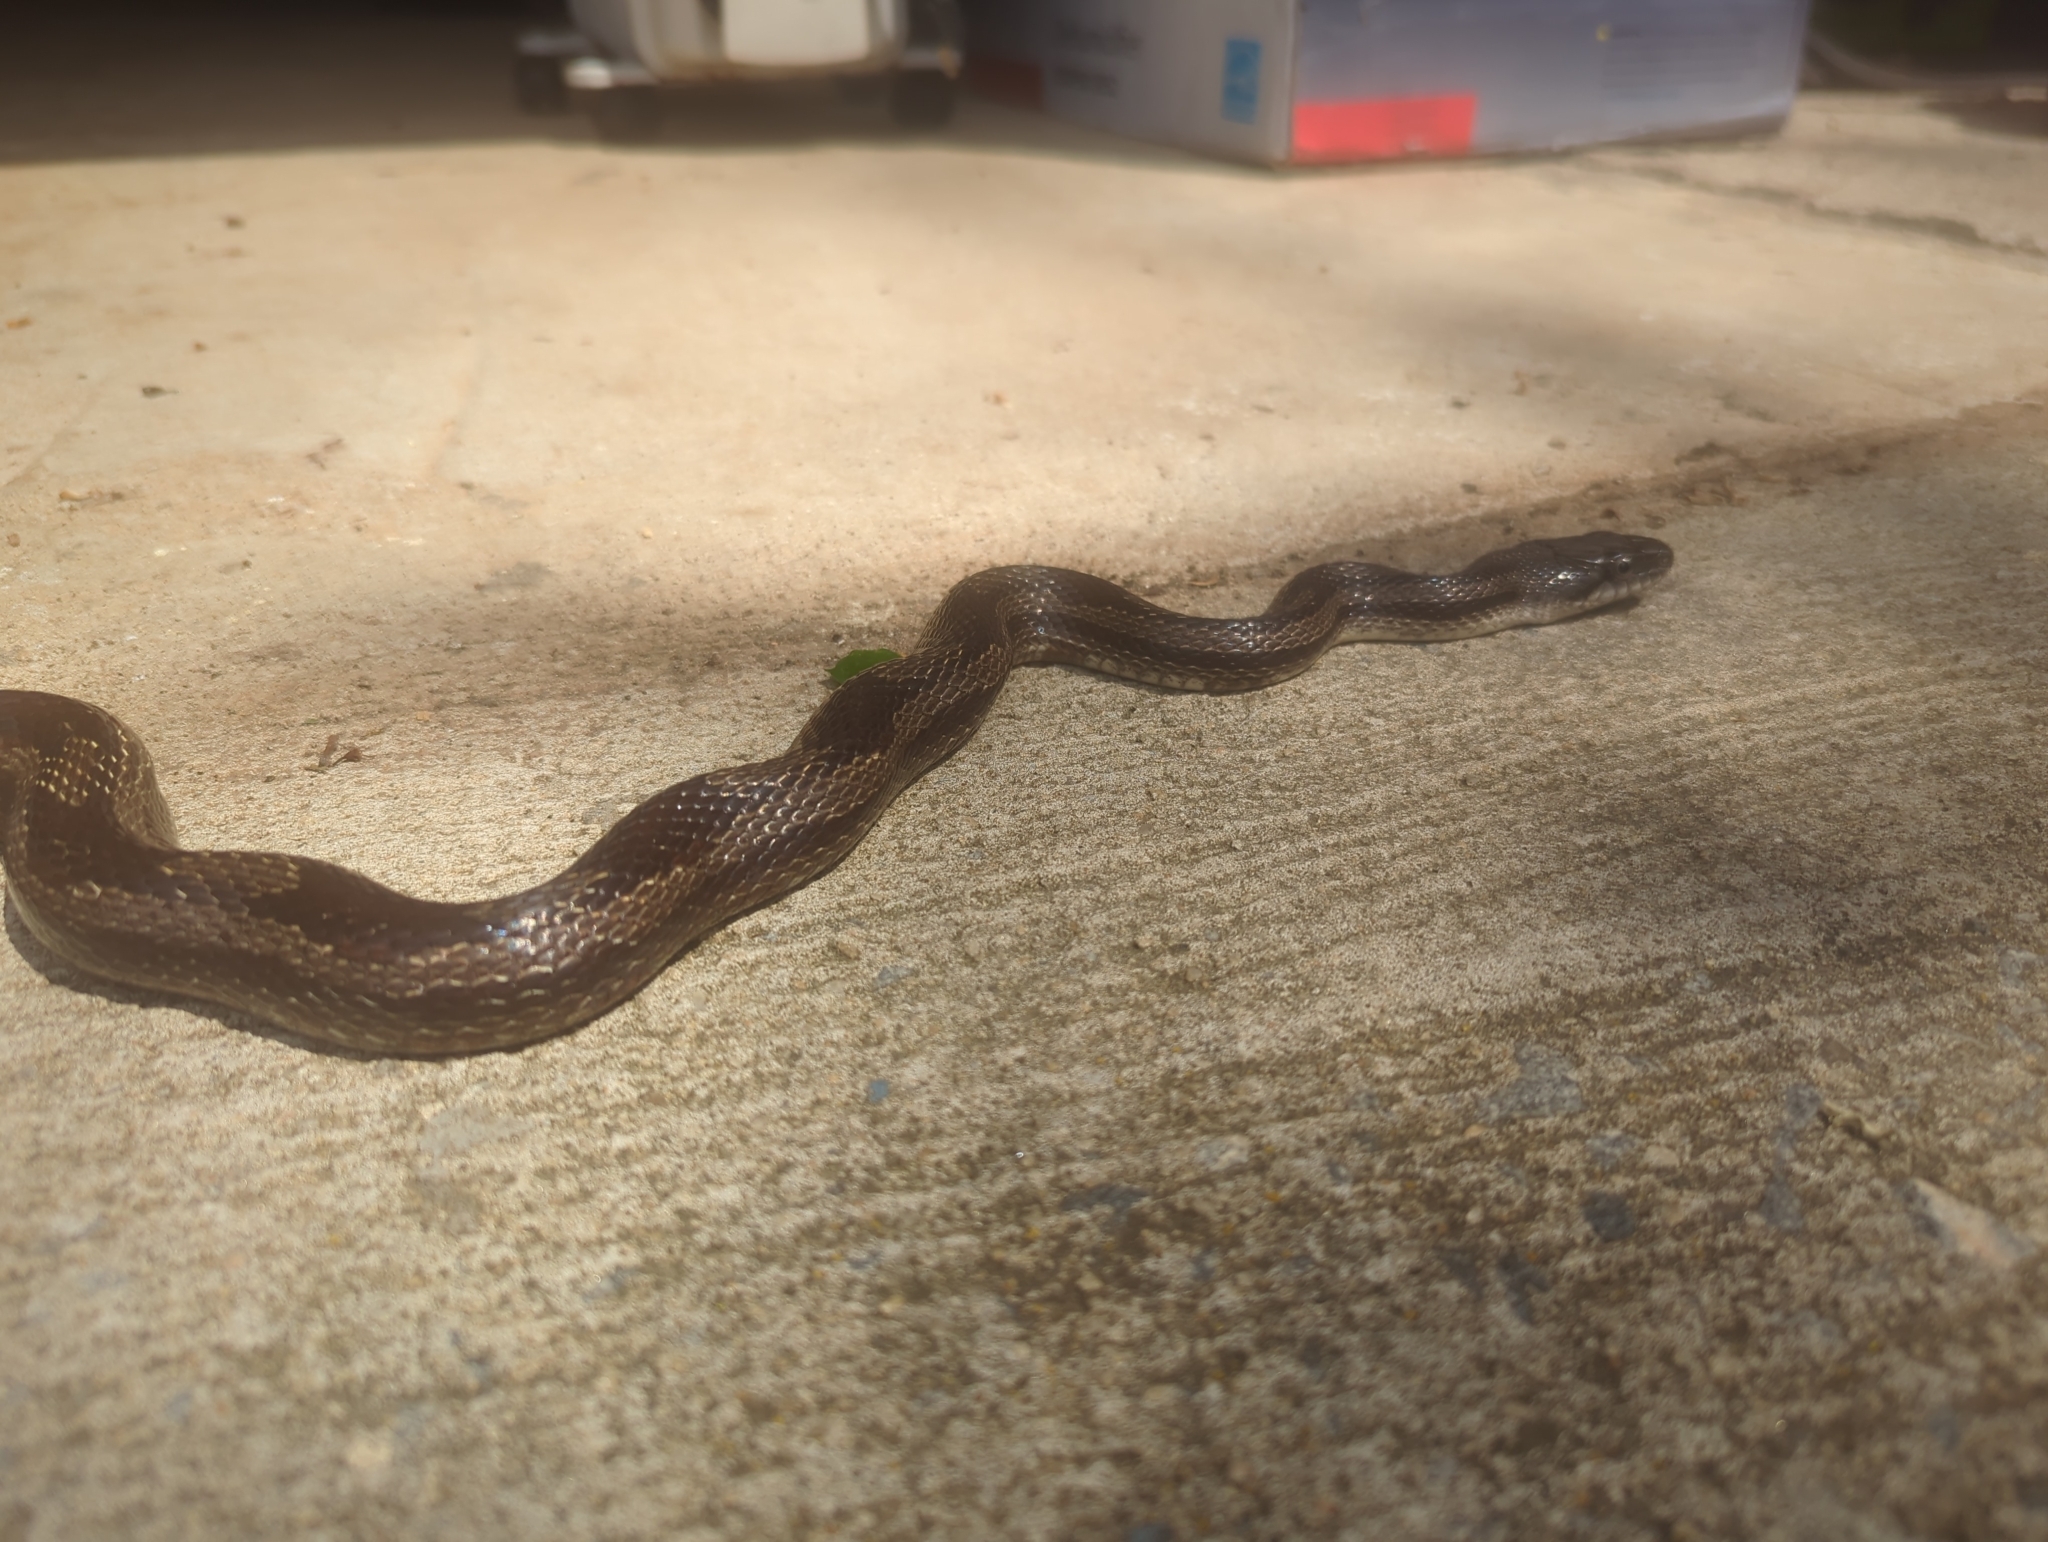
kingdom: Animalia
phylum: Chordata
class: Squamata
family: Colubridae
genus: Pantherophis
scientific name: Pantherophis alleghaniensis
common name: Eastern rat snake
